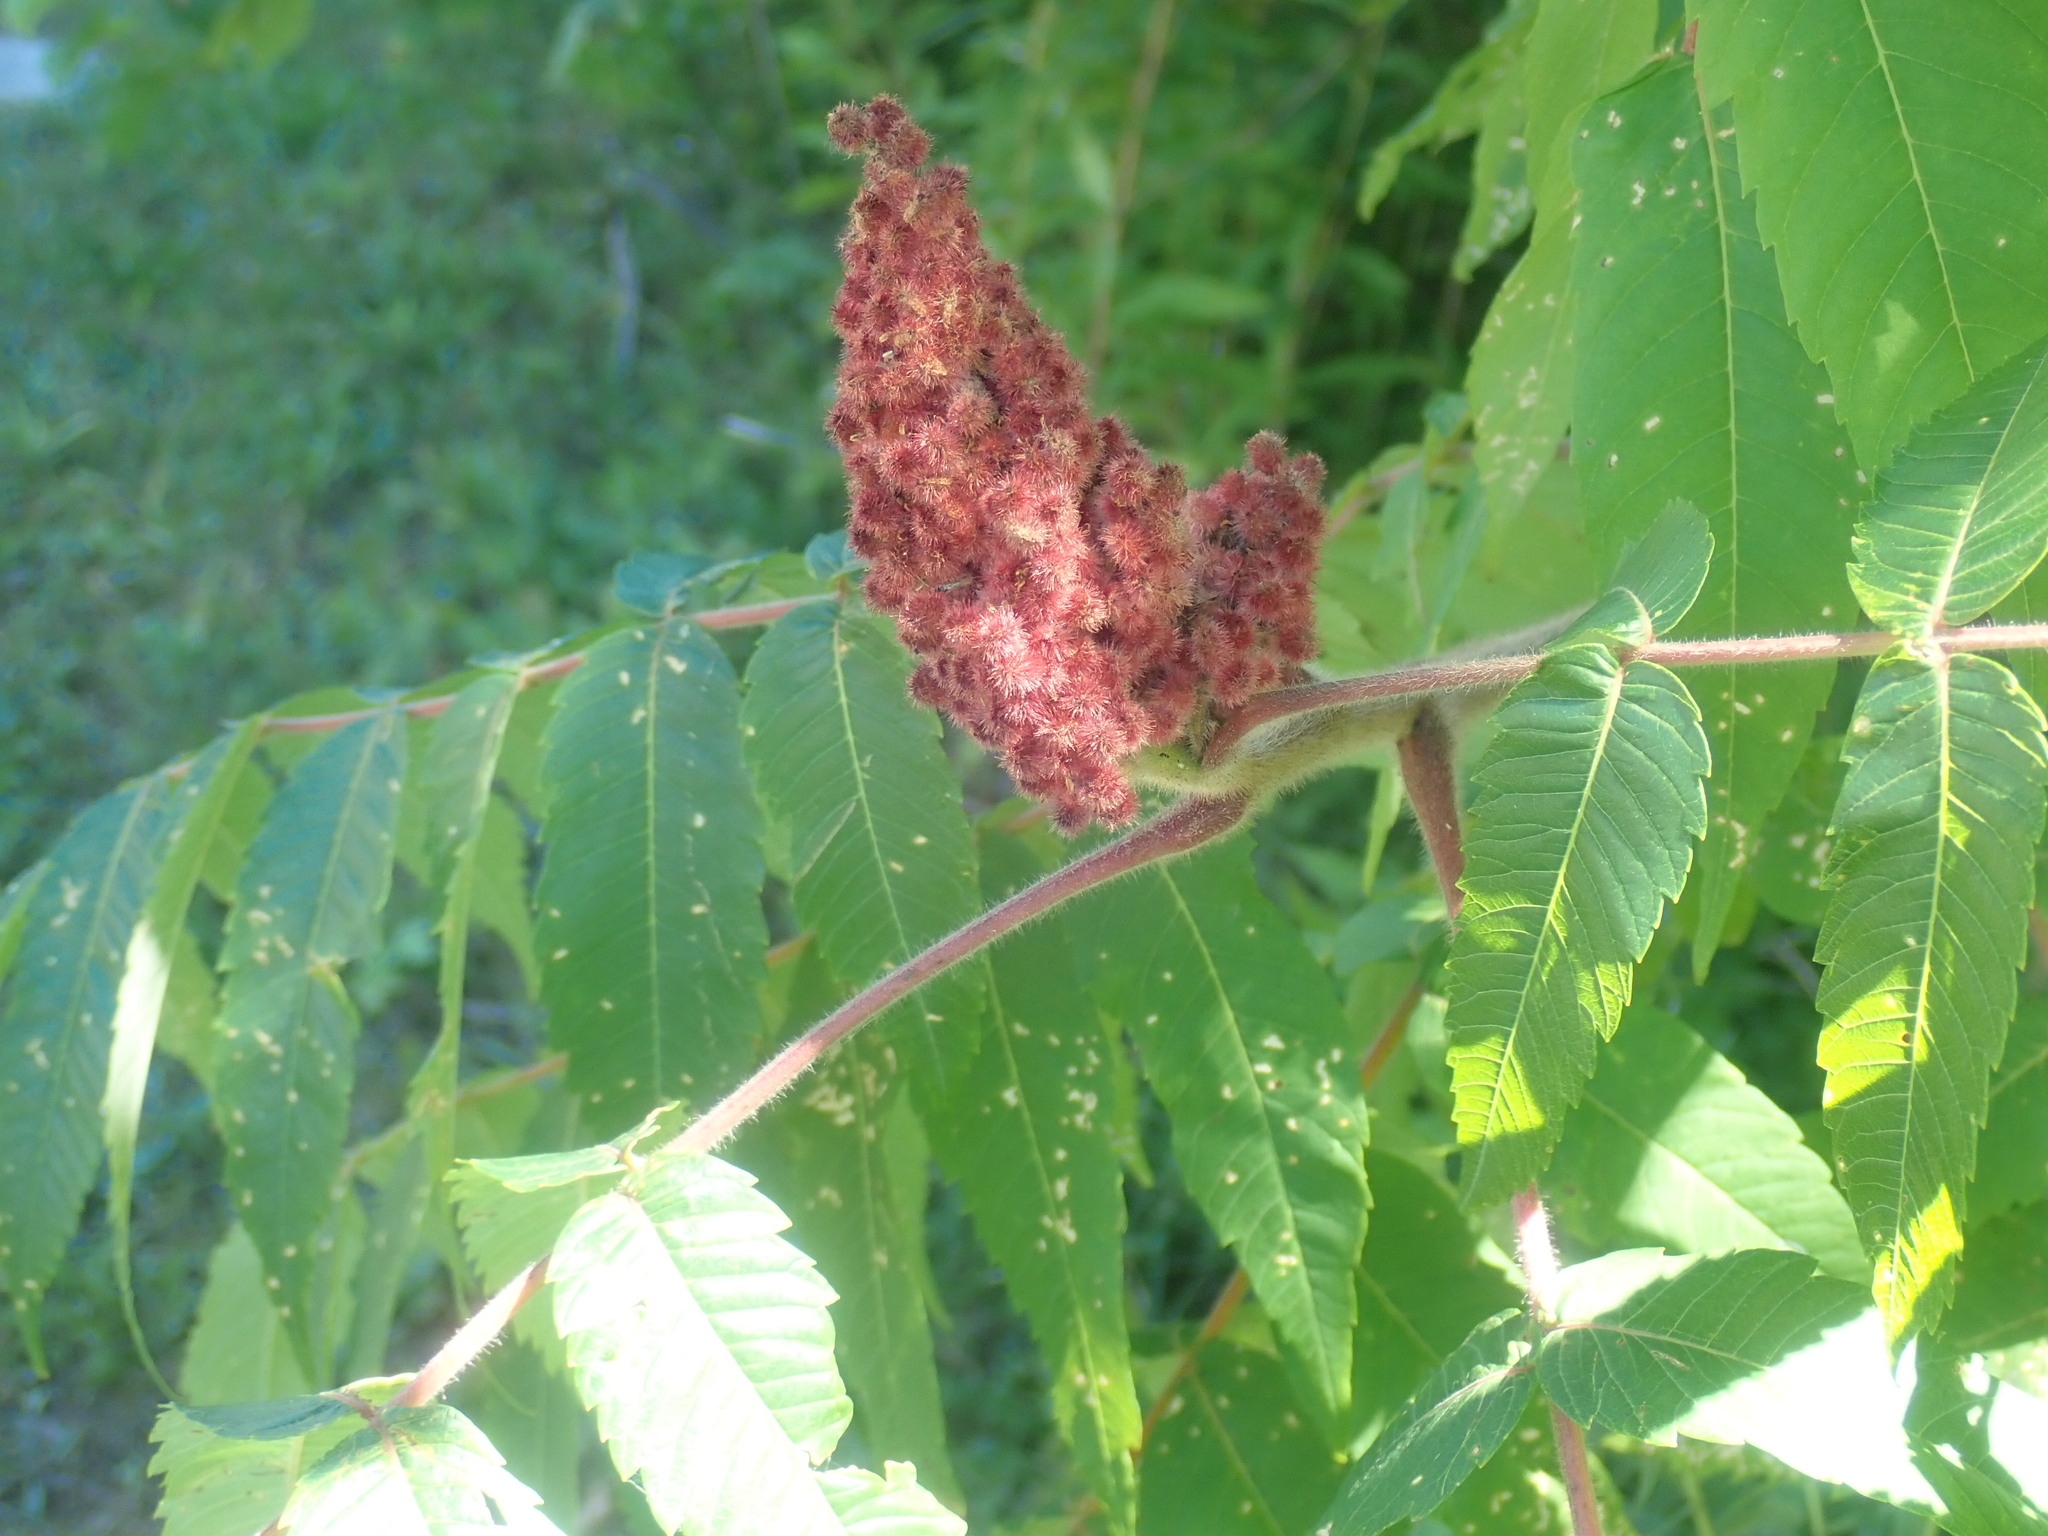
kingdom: Plantae
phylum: Tracheophyta
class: Magnoliopsida
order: Sapindales
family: Anacardiaceae
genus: Rhus
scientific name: Rhus typhina
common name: Staghorn sumac
